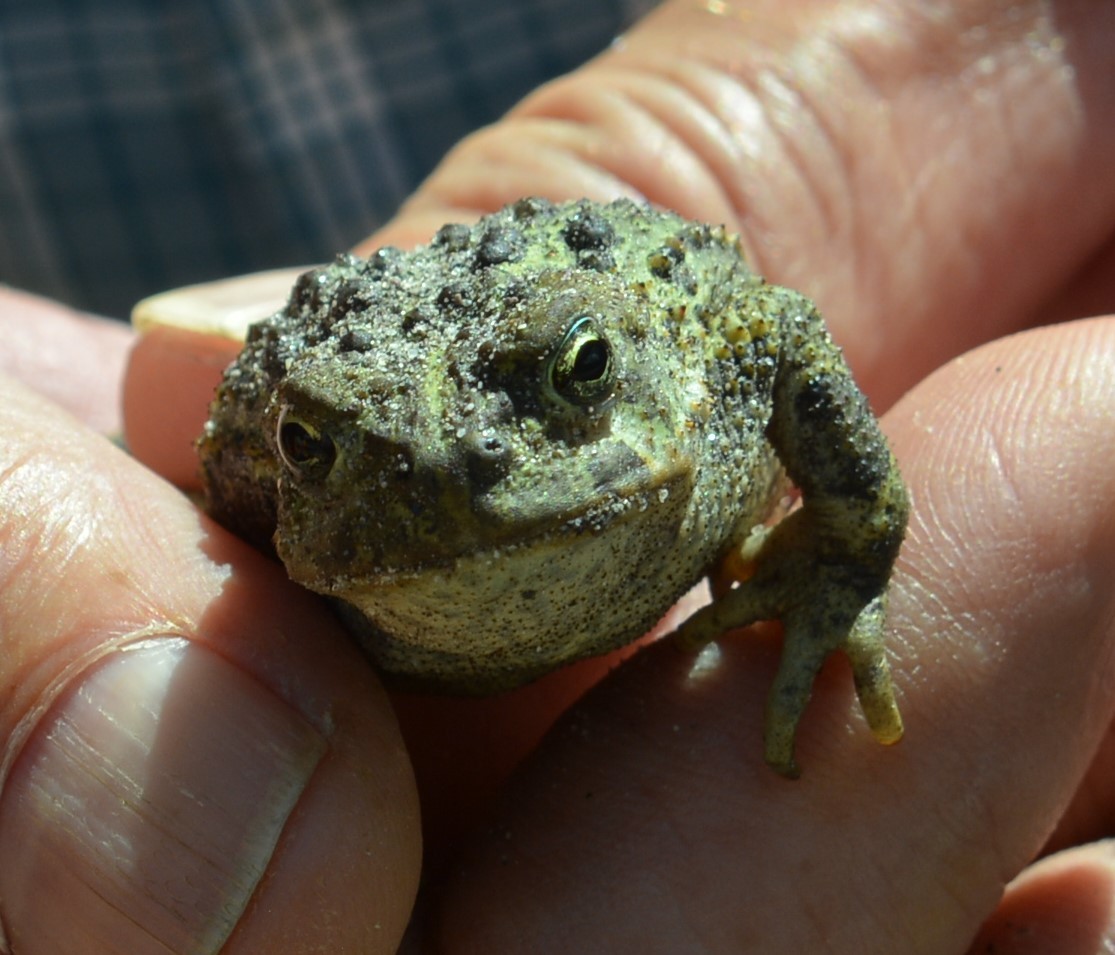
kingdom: Animalia
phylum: Chordata
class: Amphibia
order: Anura
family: Bufonidae
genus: Anaxyrus
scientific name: Anaxyrus boreas
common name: Western toad
